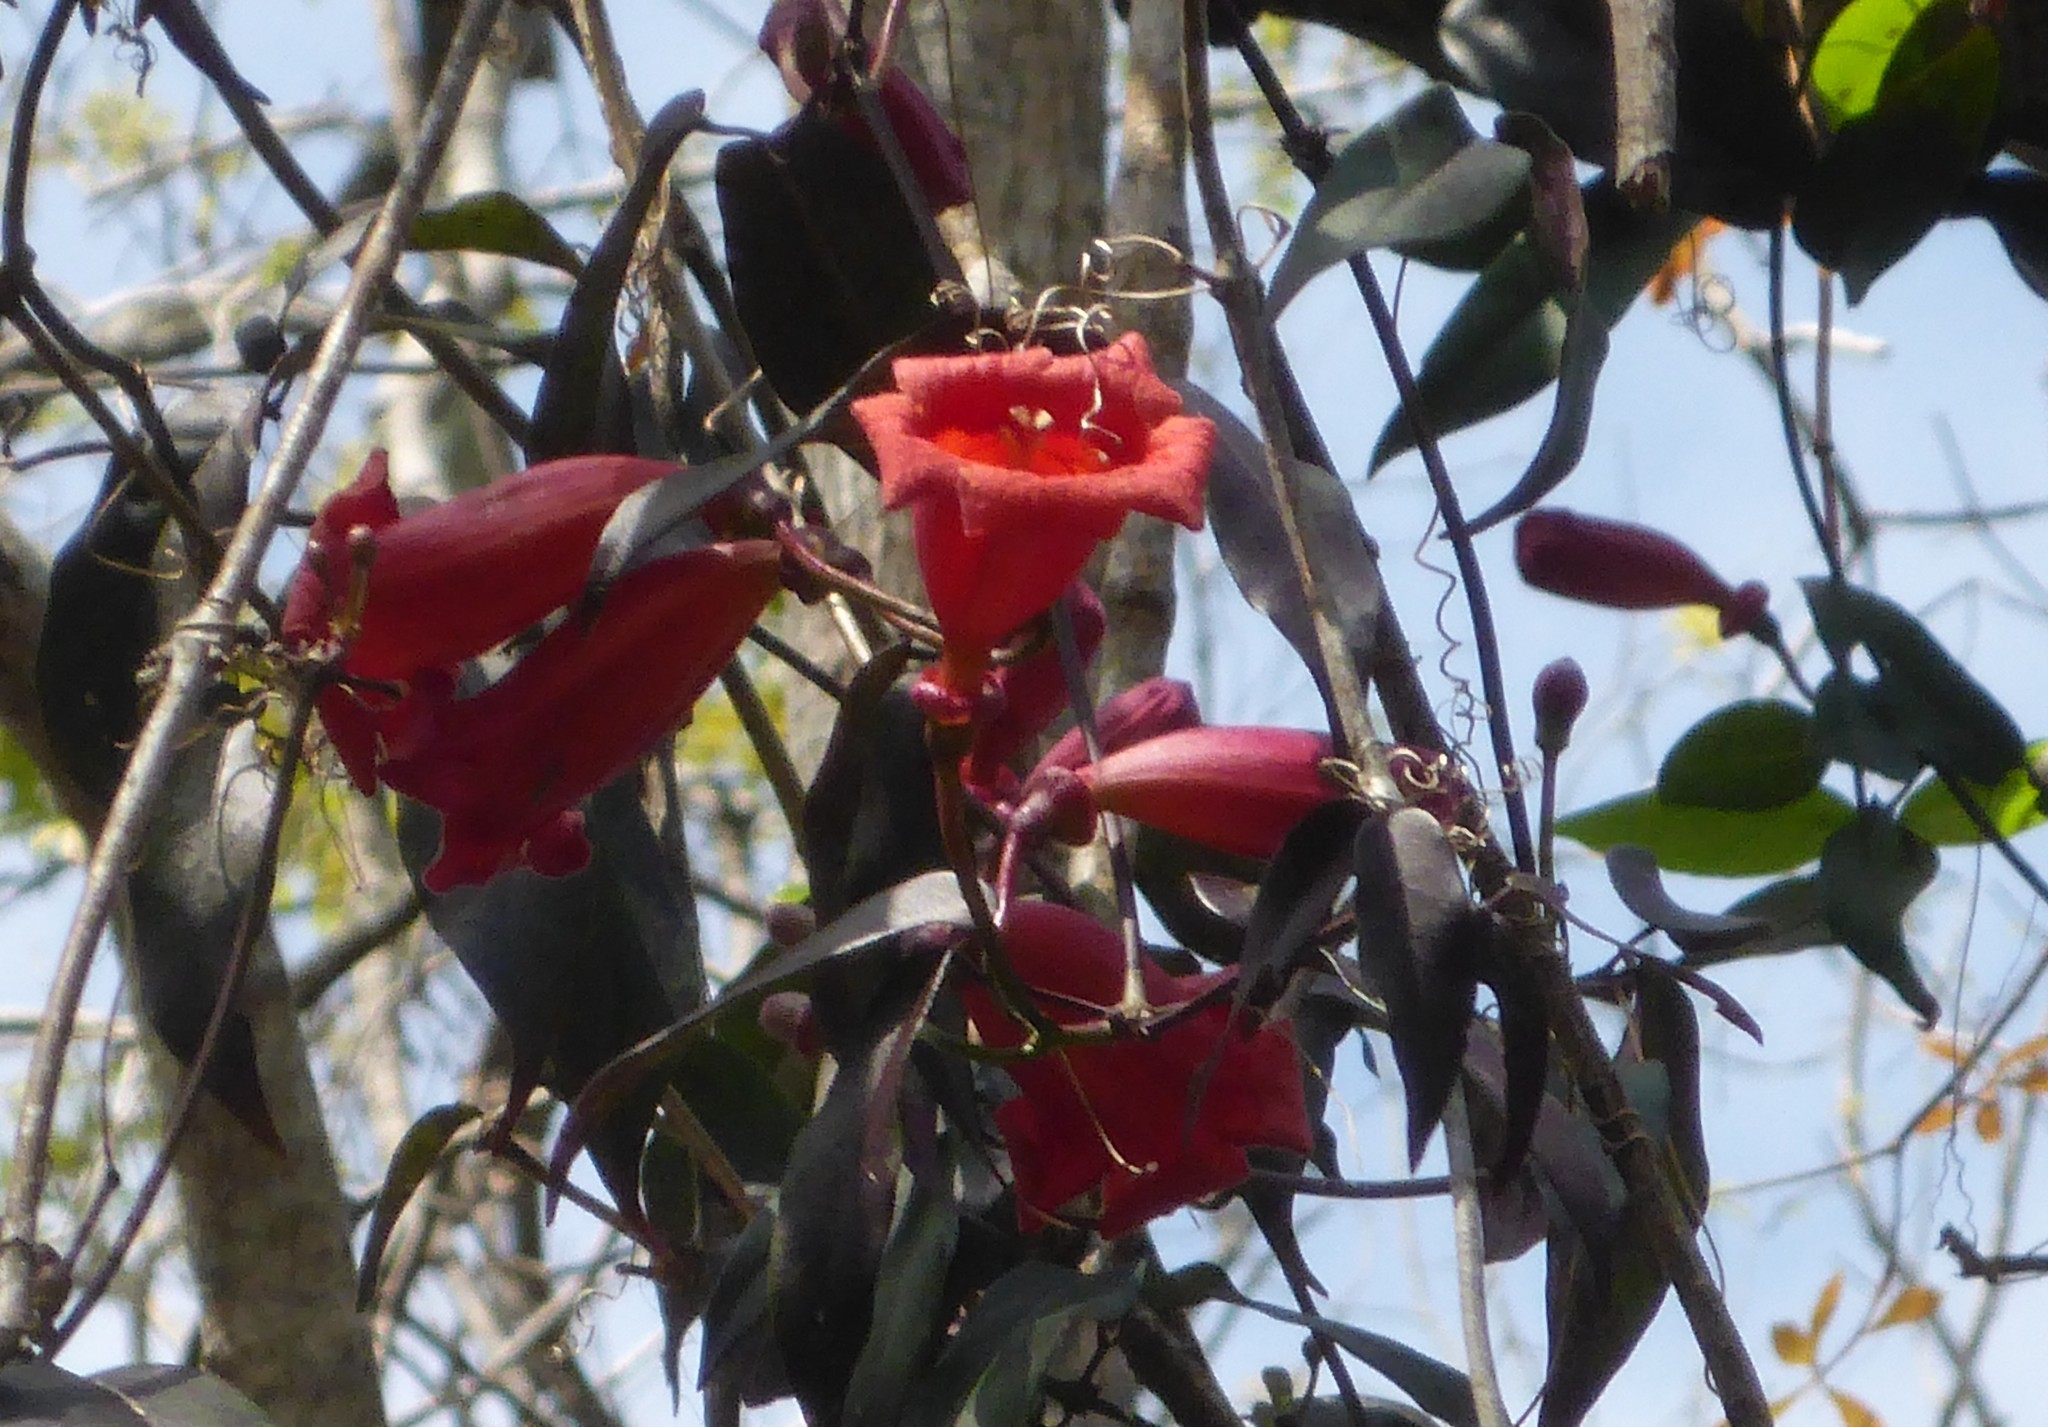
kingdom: Plantae
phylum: Tracheophyta
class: Magnoliopsida
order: Lamiales
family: Bignoniaceae
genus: Bignonia
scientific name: Bignonia capreolata
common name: Crossvine
